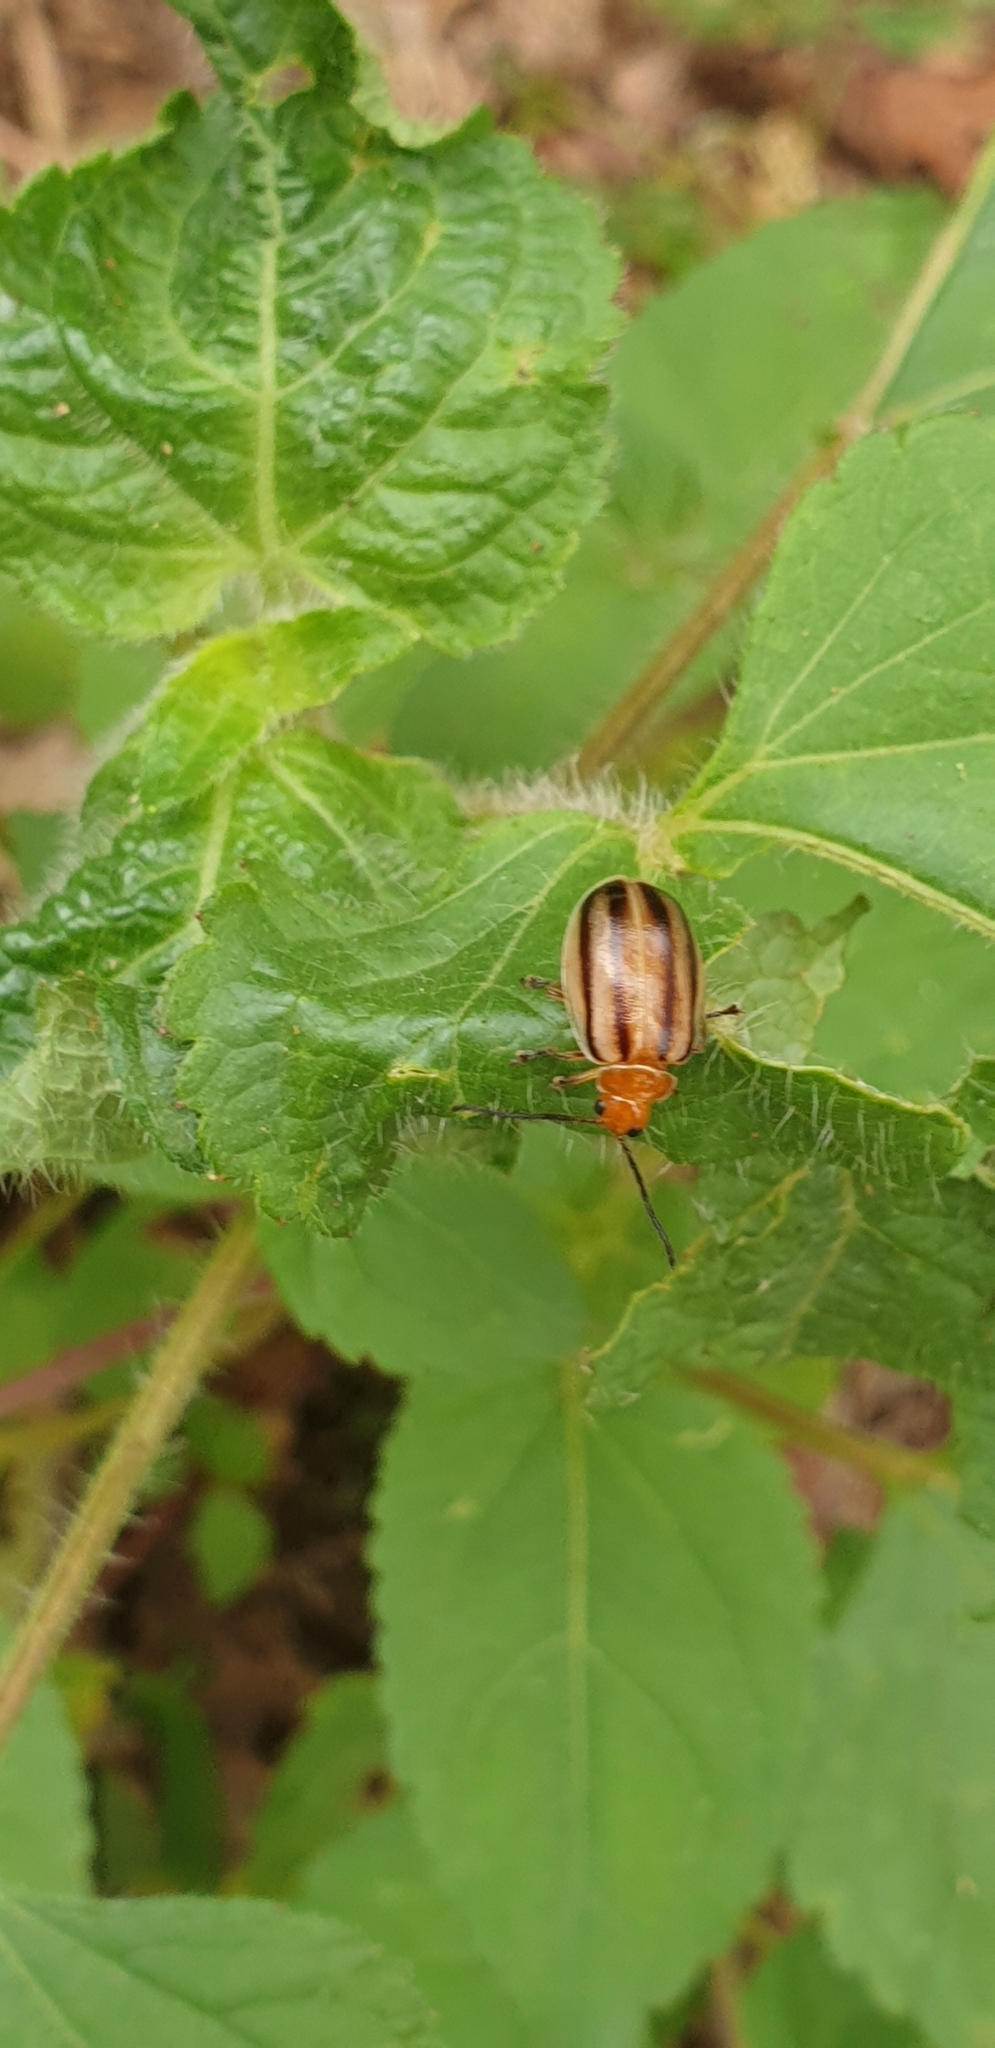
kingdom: Animalia
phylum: Arthropoda
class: Insecta
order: Coleoptera
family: Chrysomelidae
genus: Oides
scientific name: Oides
